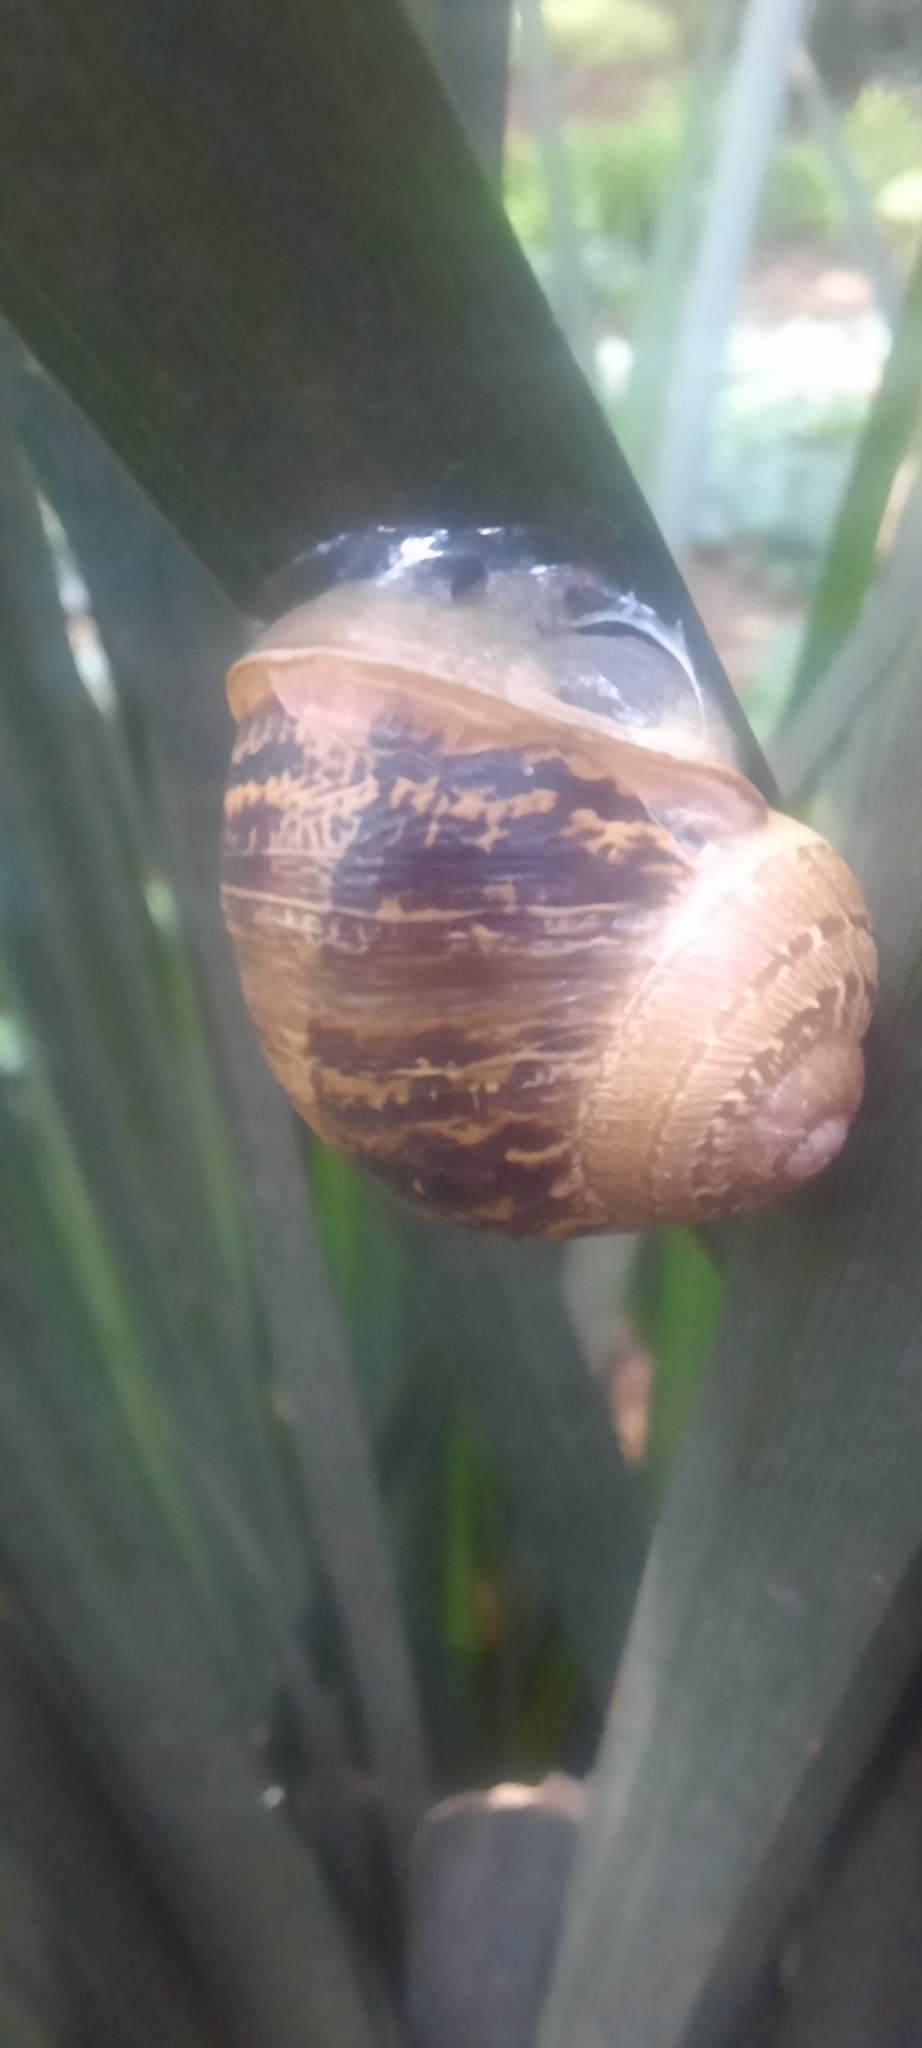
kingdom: Animalia
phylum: Mollusca
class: Gastropoda
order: Stylommatophora
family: Helicidae
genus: Cornu
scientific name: Cornu aspersum
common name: Brown garden snail
